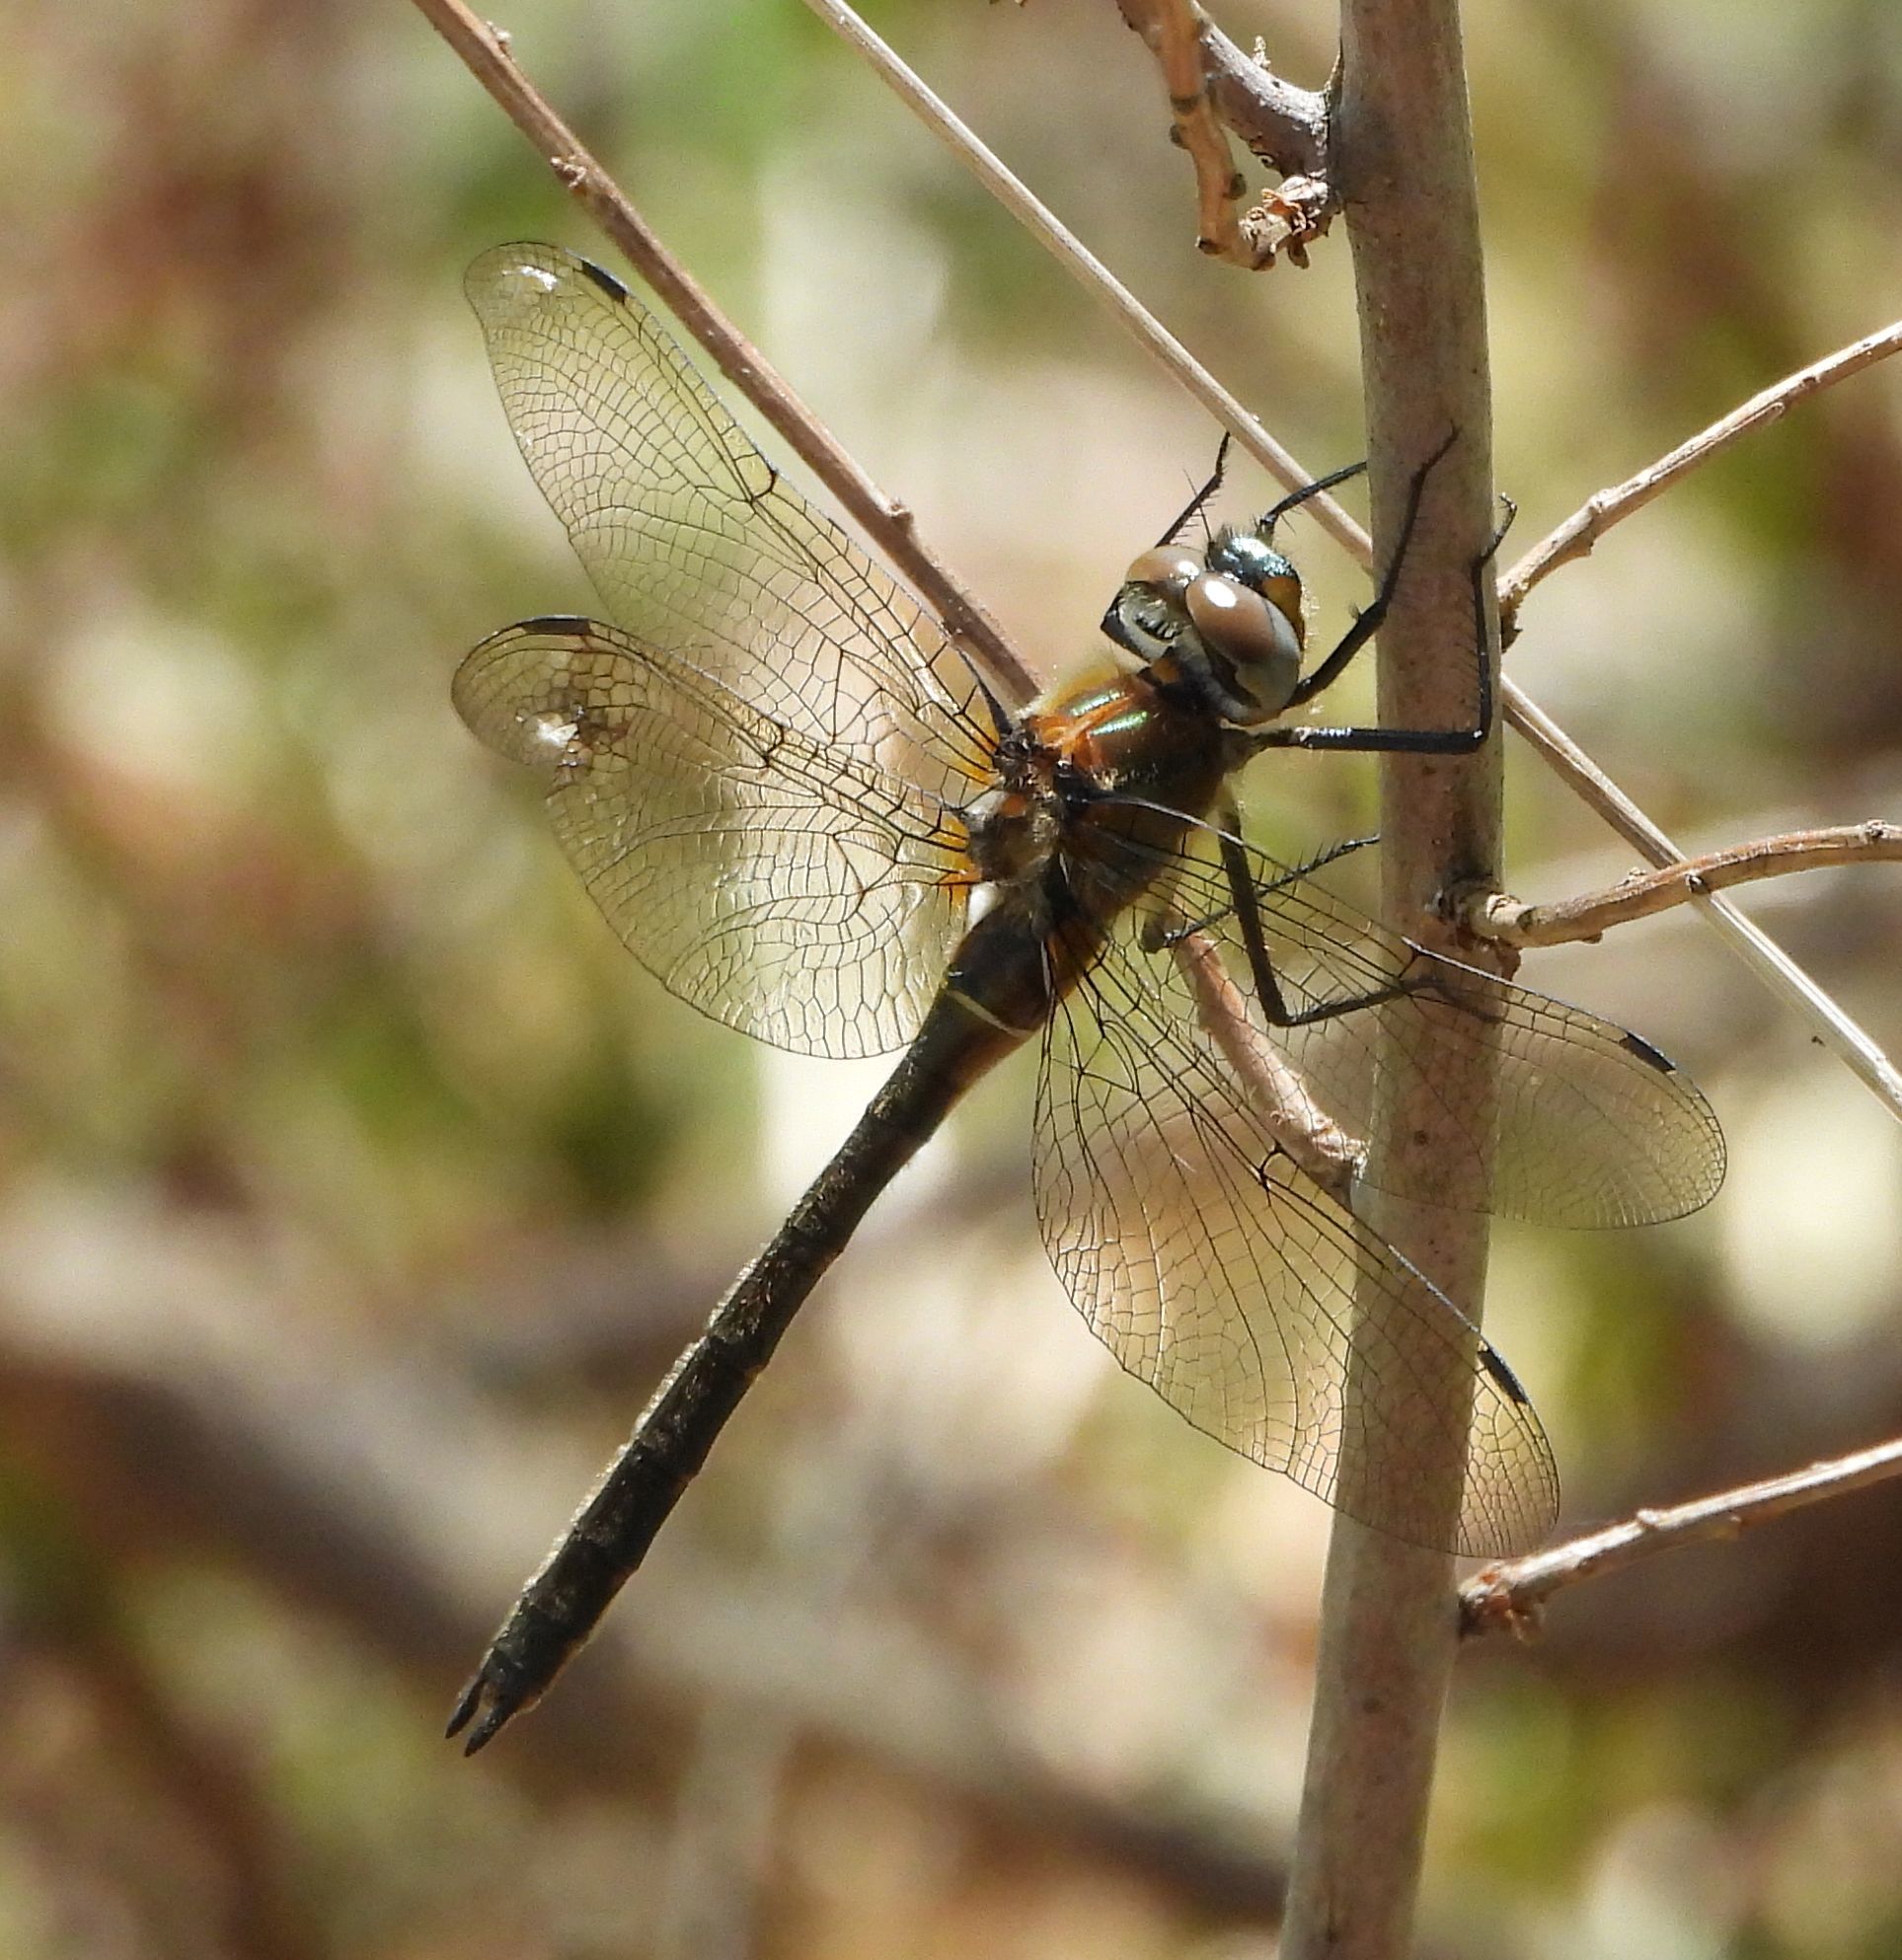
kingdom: Animalia
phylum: Arthropoda
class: Insecta
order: Odonata
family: Corduliidae
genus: Cordulia
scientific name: Cordulia shurtleffii
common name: American emerald
